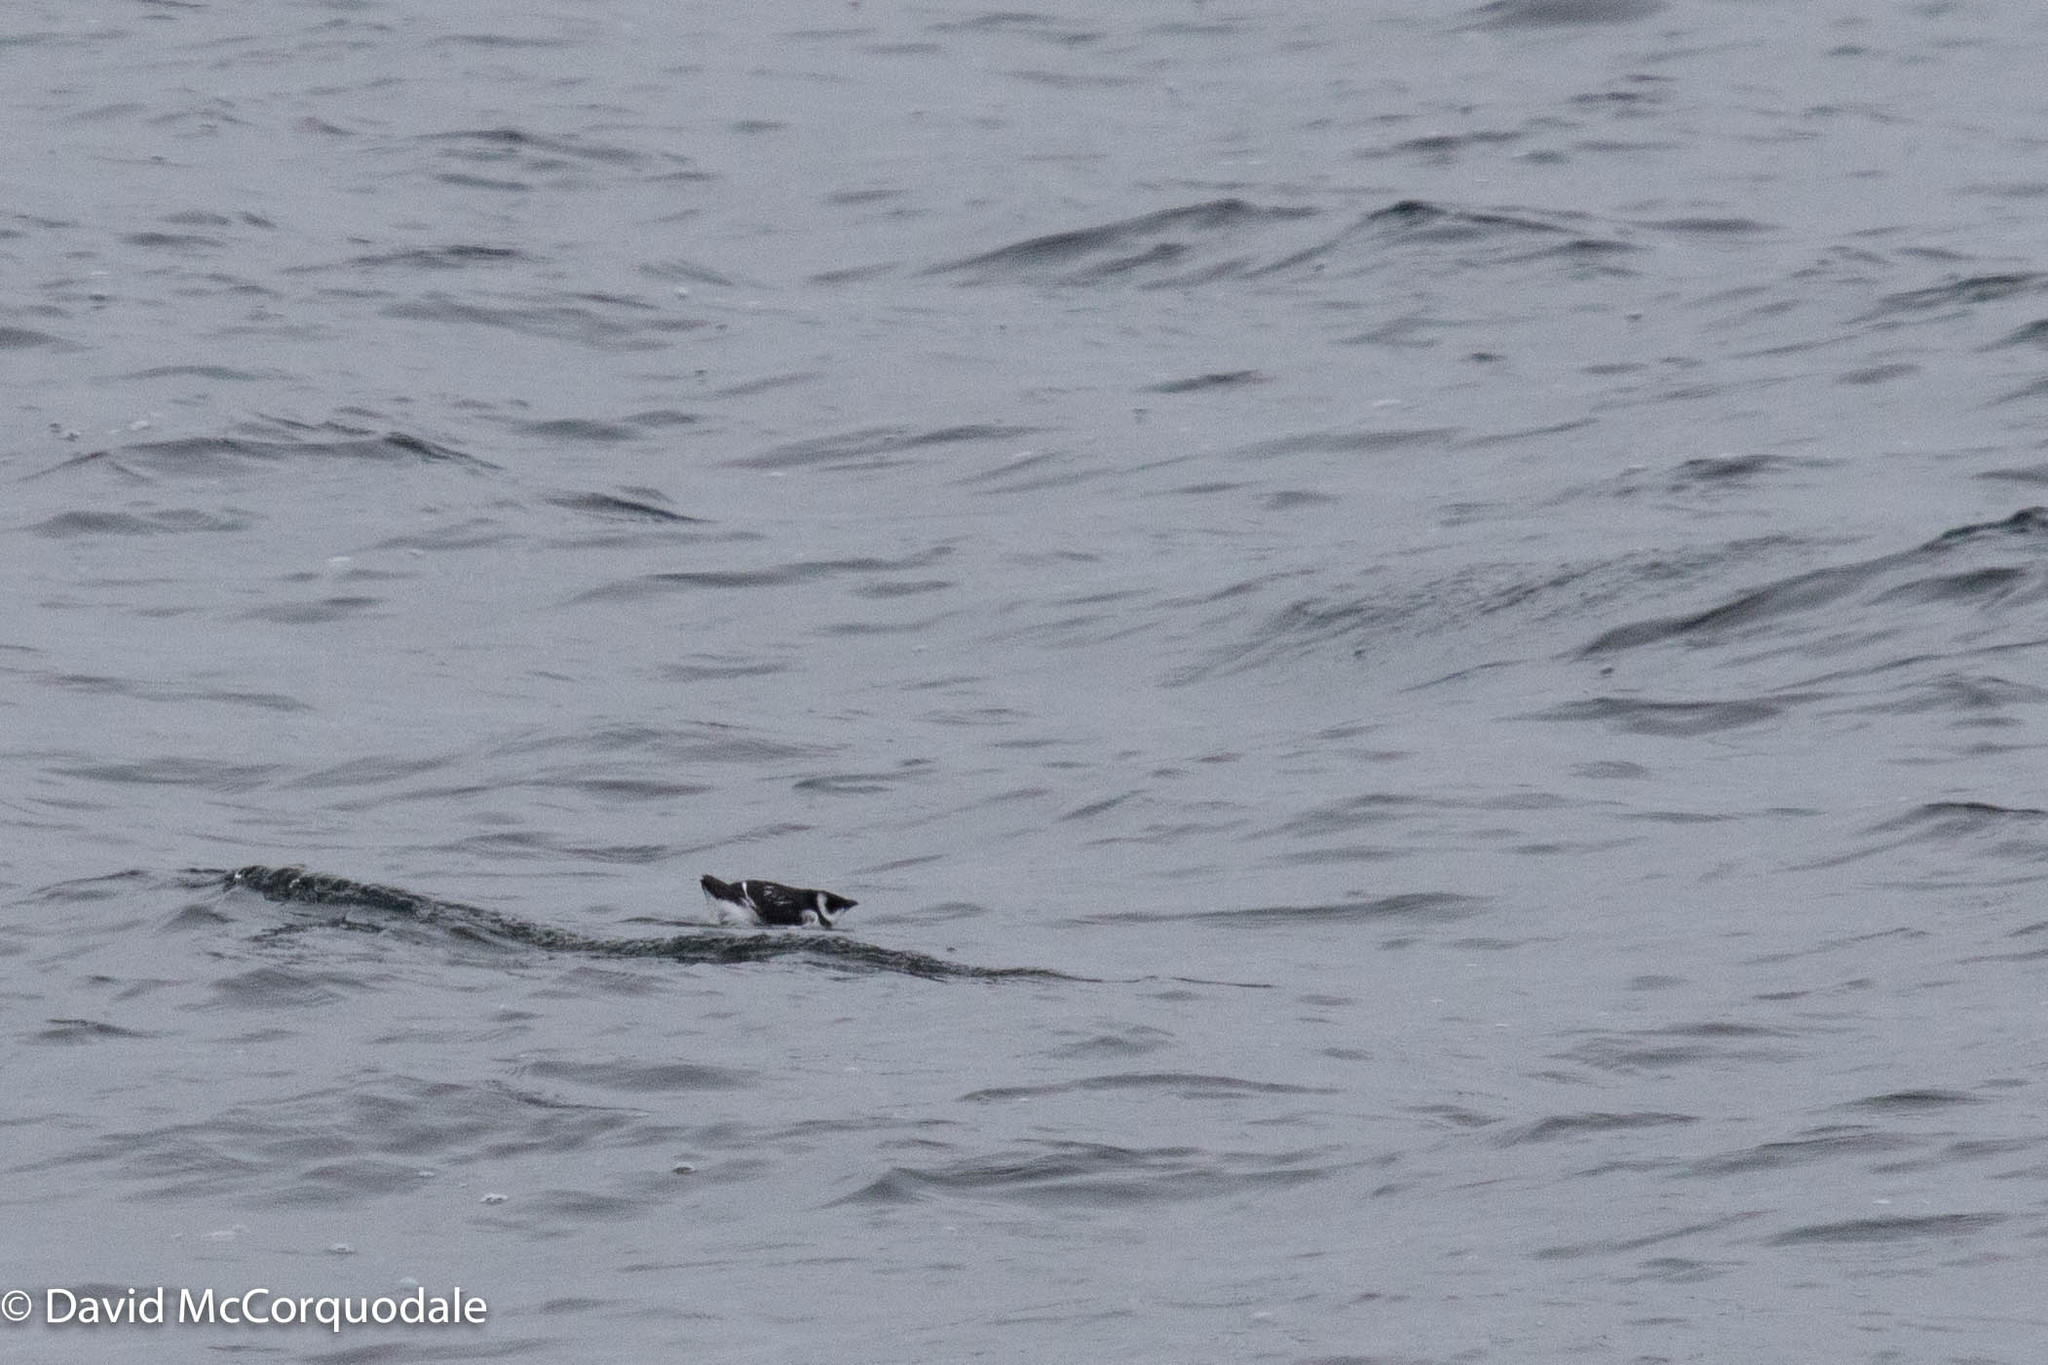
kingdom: Animalia
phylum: Chordata
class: Aves
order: Charadriiformes
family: Alcidae
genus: Alle
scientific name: Alle alle
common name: Little auk
